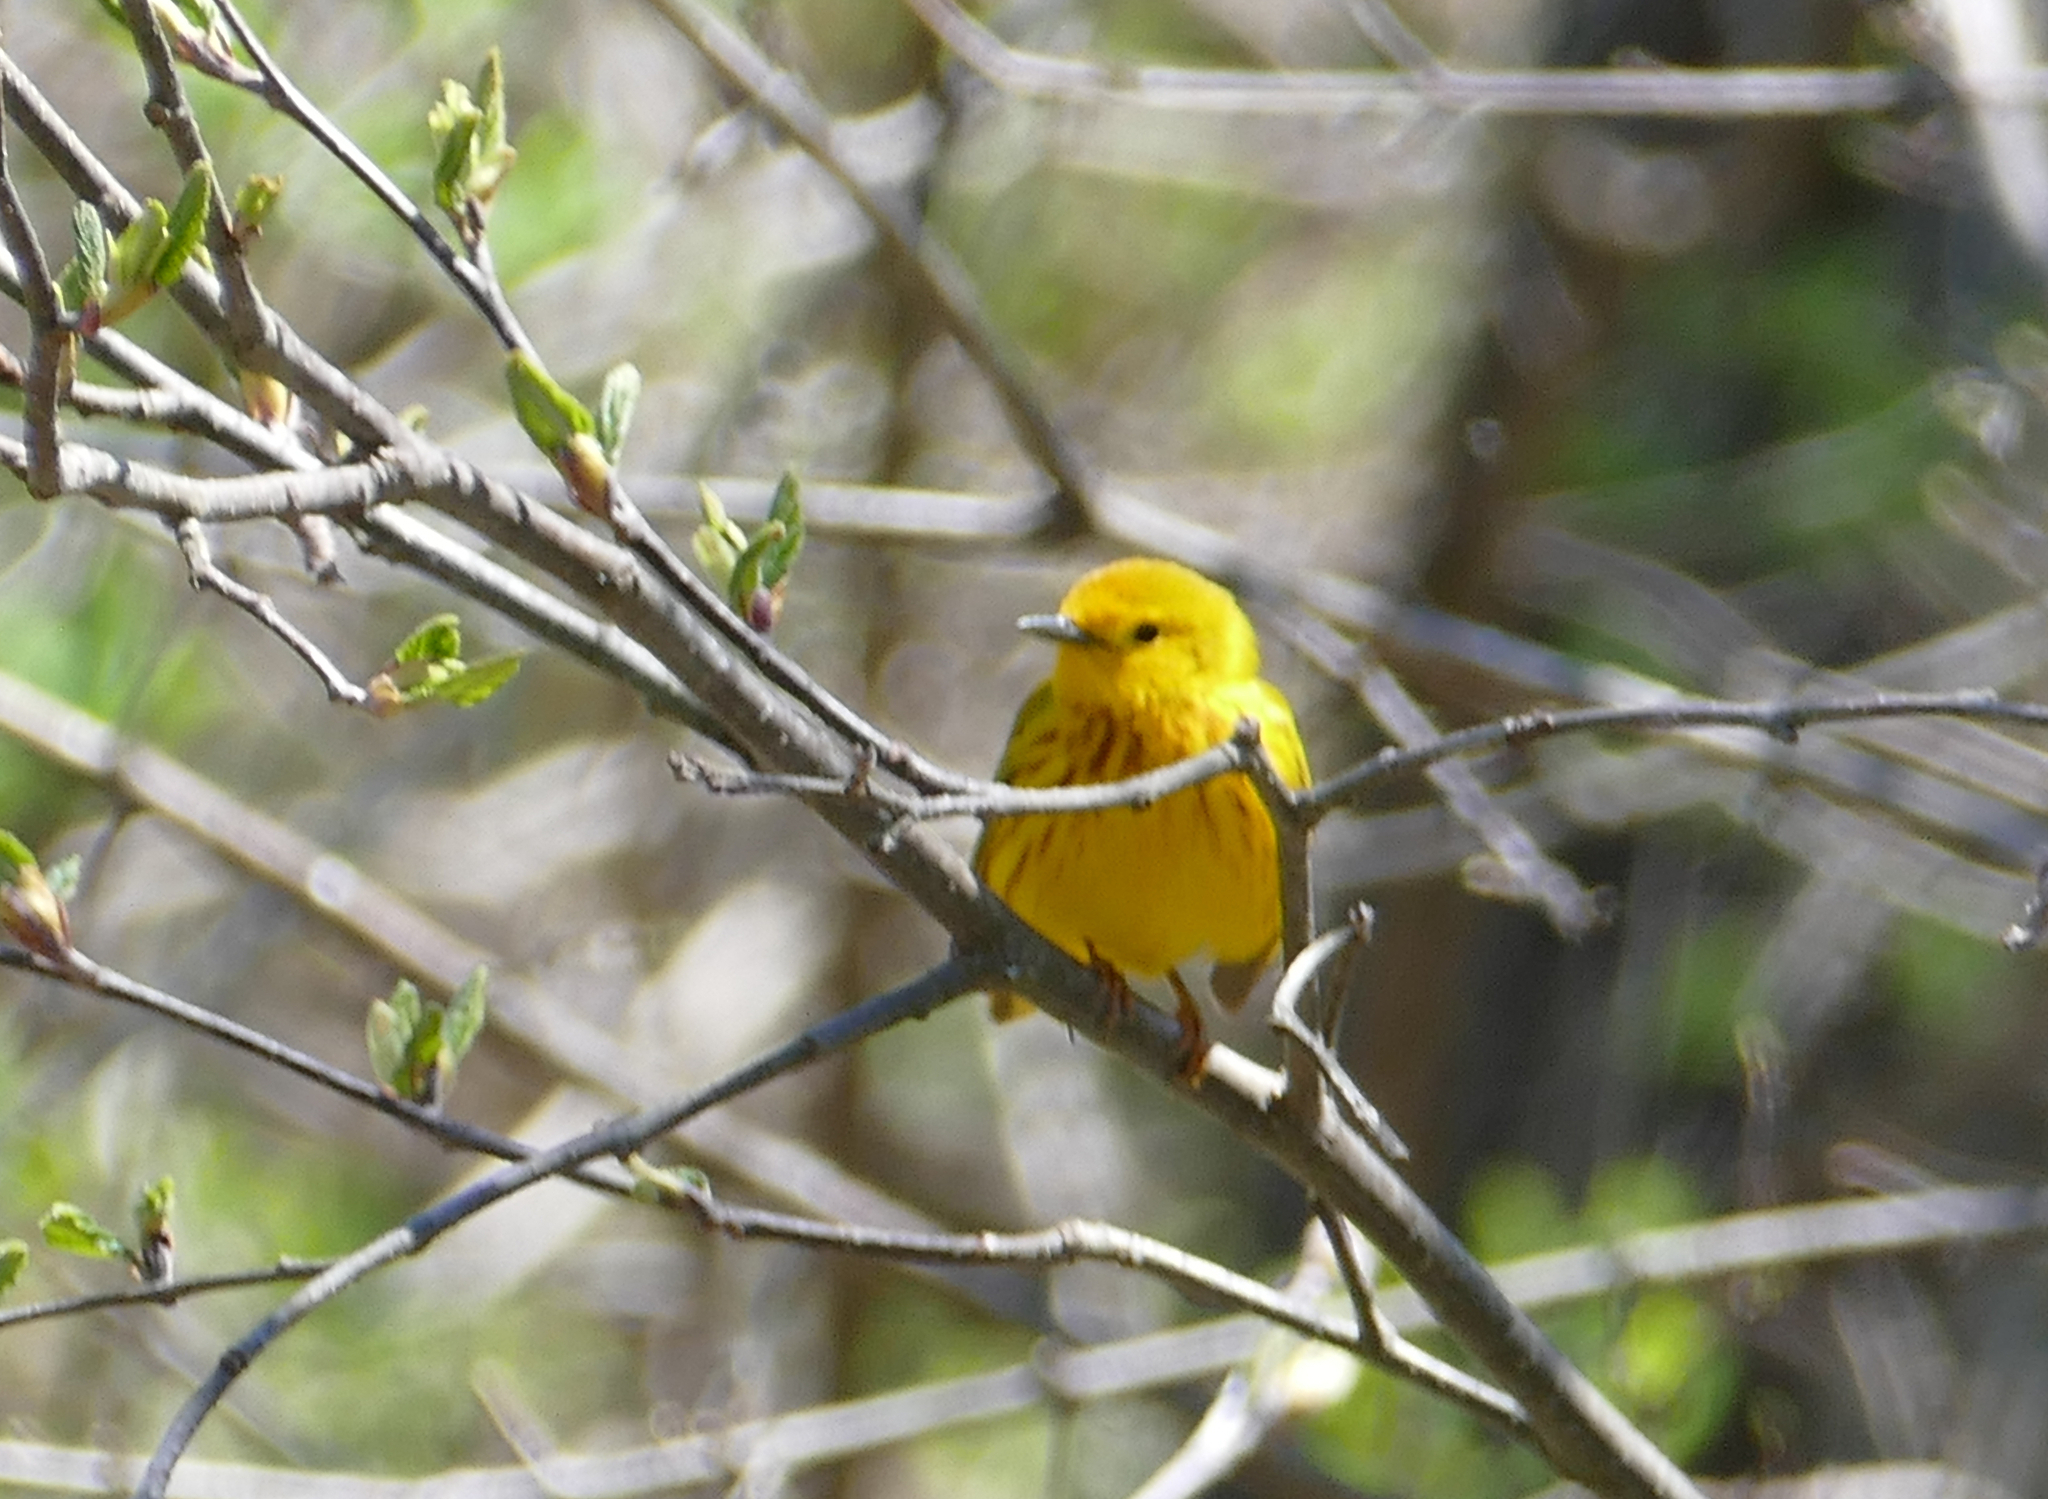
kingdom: Animalia
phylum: Chordata
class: Aves
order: Passeriformes
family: Parulidae
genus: Setophaga
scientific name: Setophaga petechia
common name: Yellow warbler
